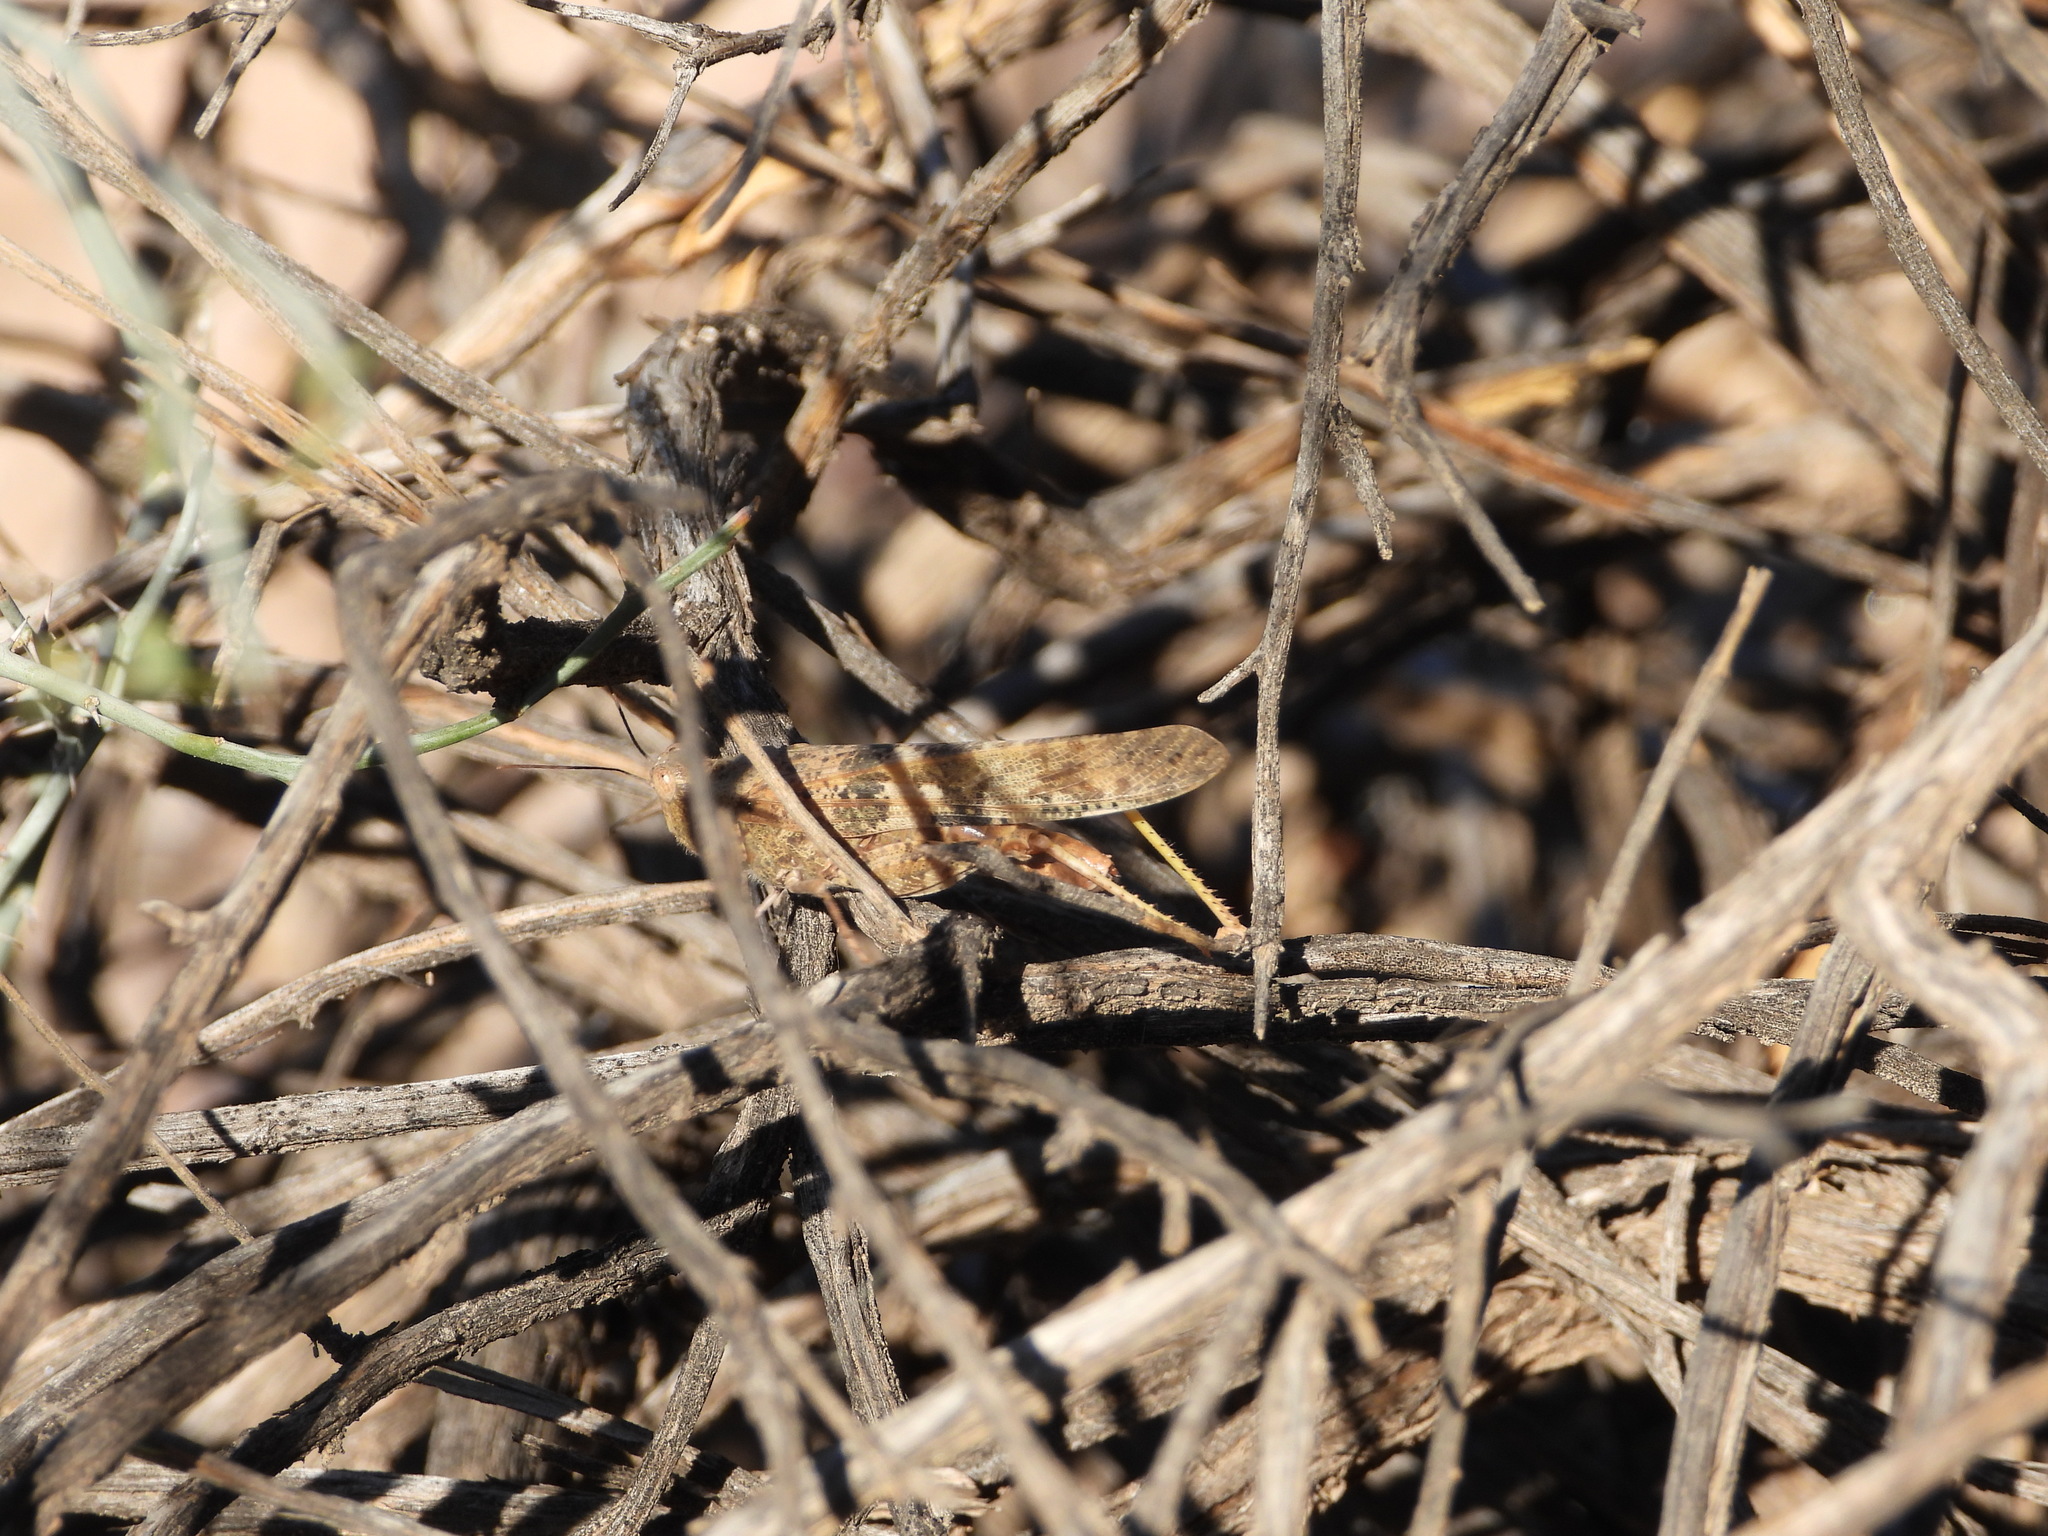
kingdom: Animalia
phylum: Arthropoda
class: Insecta
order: Orthoptera
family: Acrididae
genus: Trimerotropis
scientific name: Trimerotropis pallidipennis
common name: Pallid-winged grasshopper
